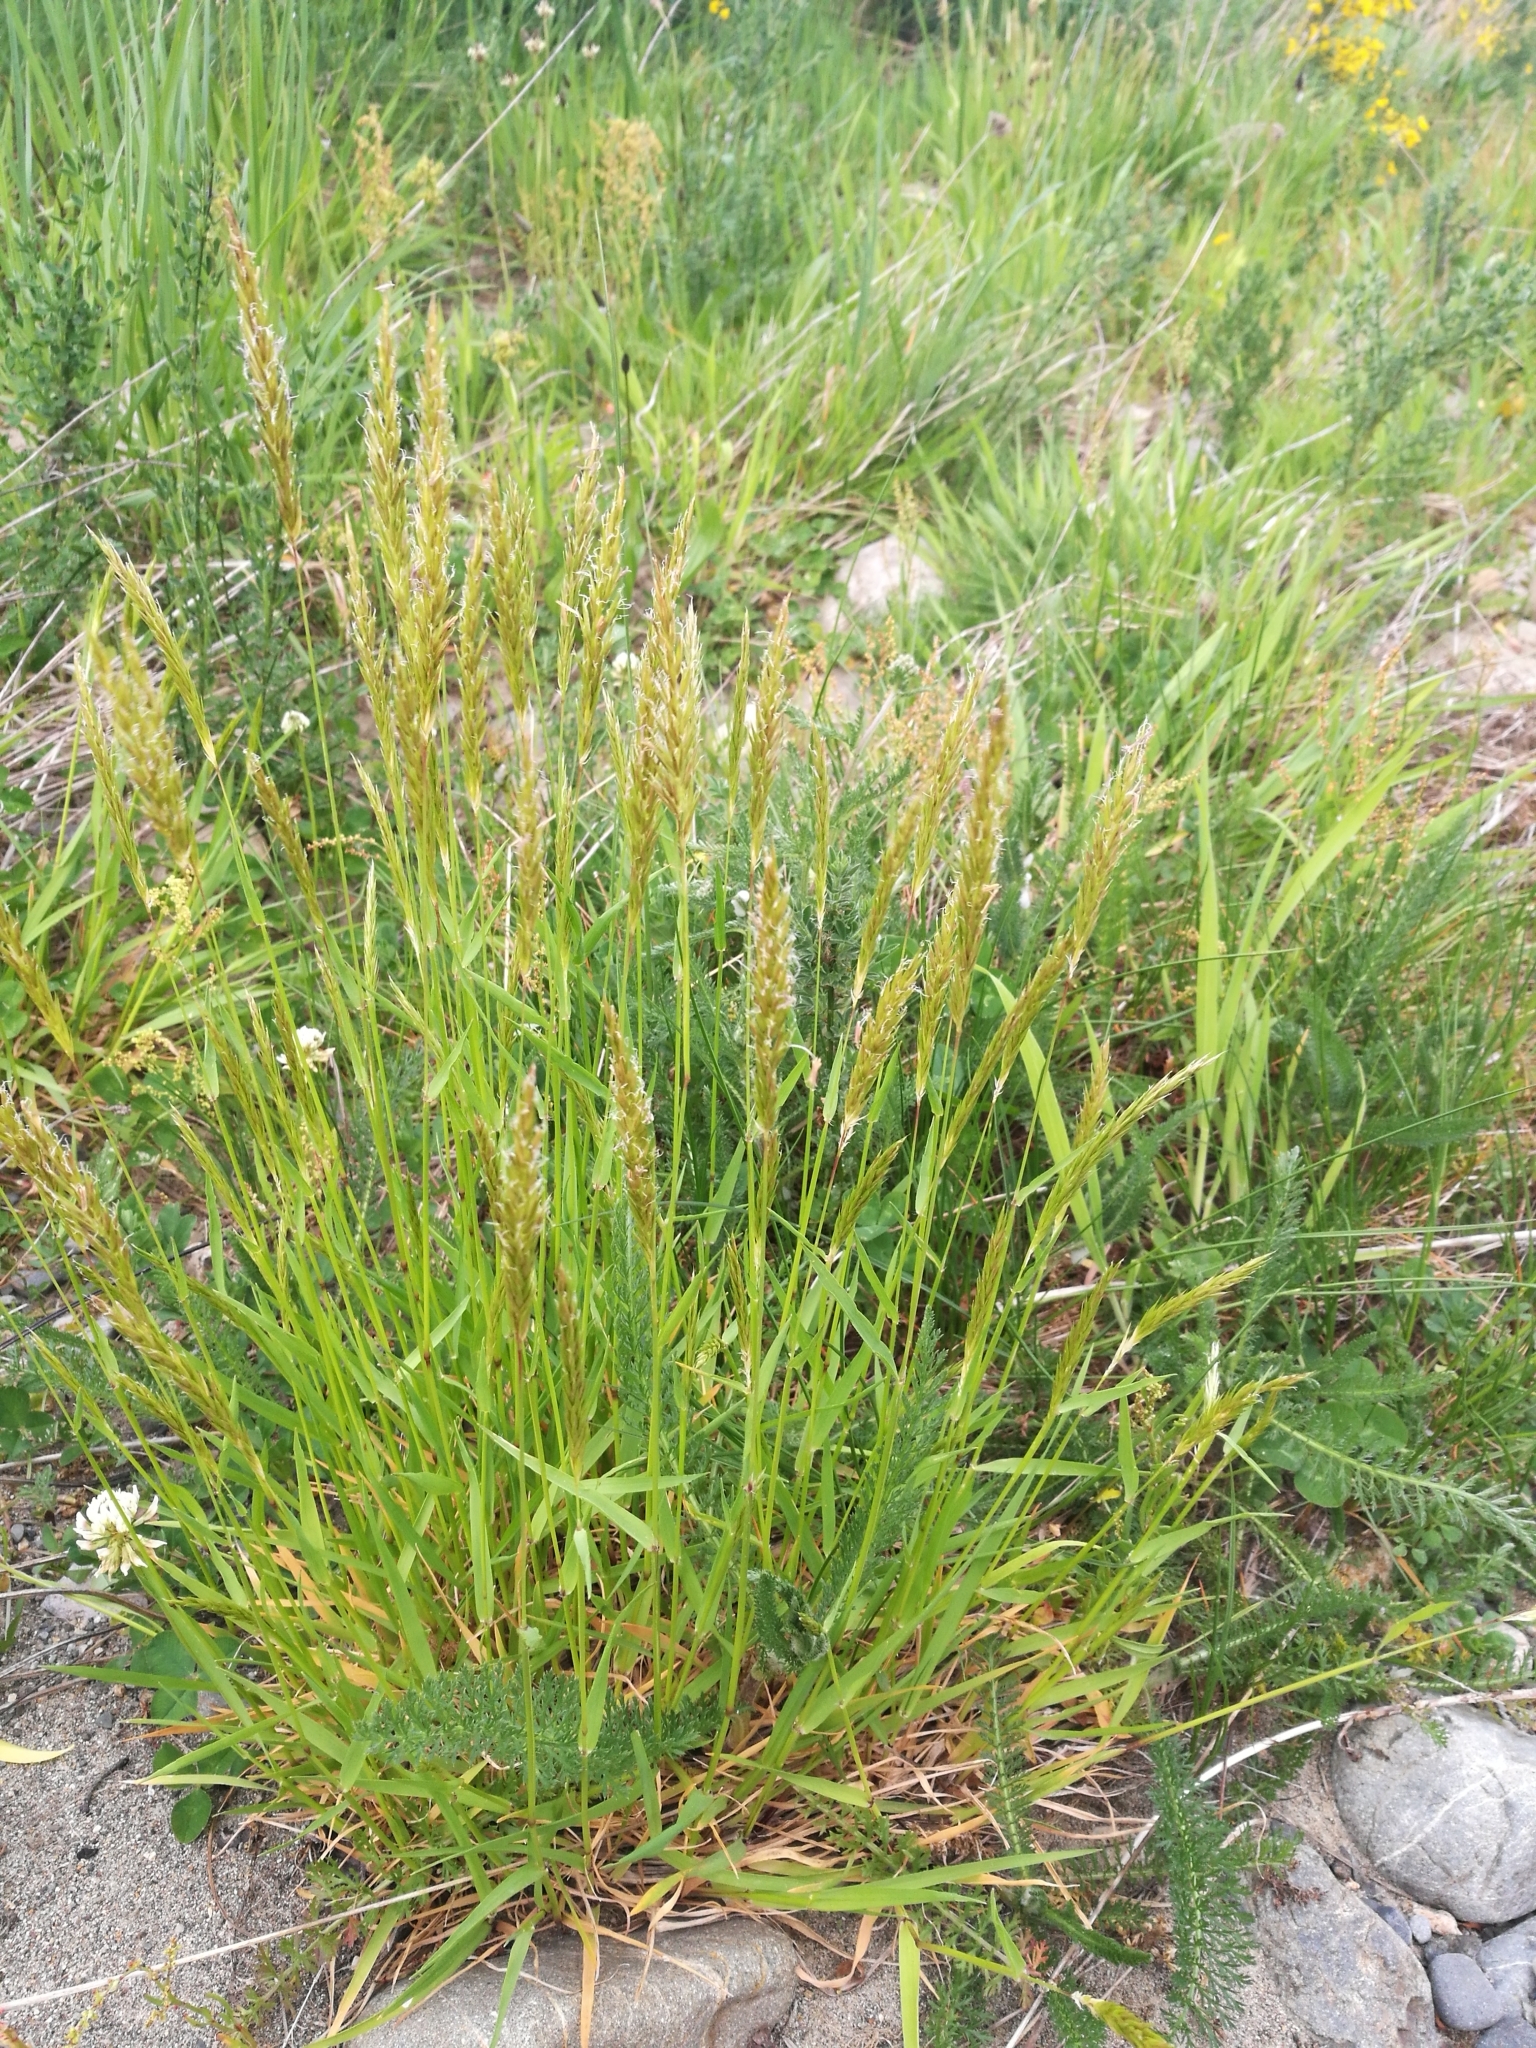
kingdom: Plantae
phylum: Tracheophyta
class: Liliopsida
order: Poales
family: Poaceae
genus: Anthoxanthum
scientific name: Anthoxanthum odoratum
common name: Sweet vernalgrass
